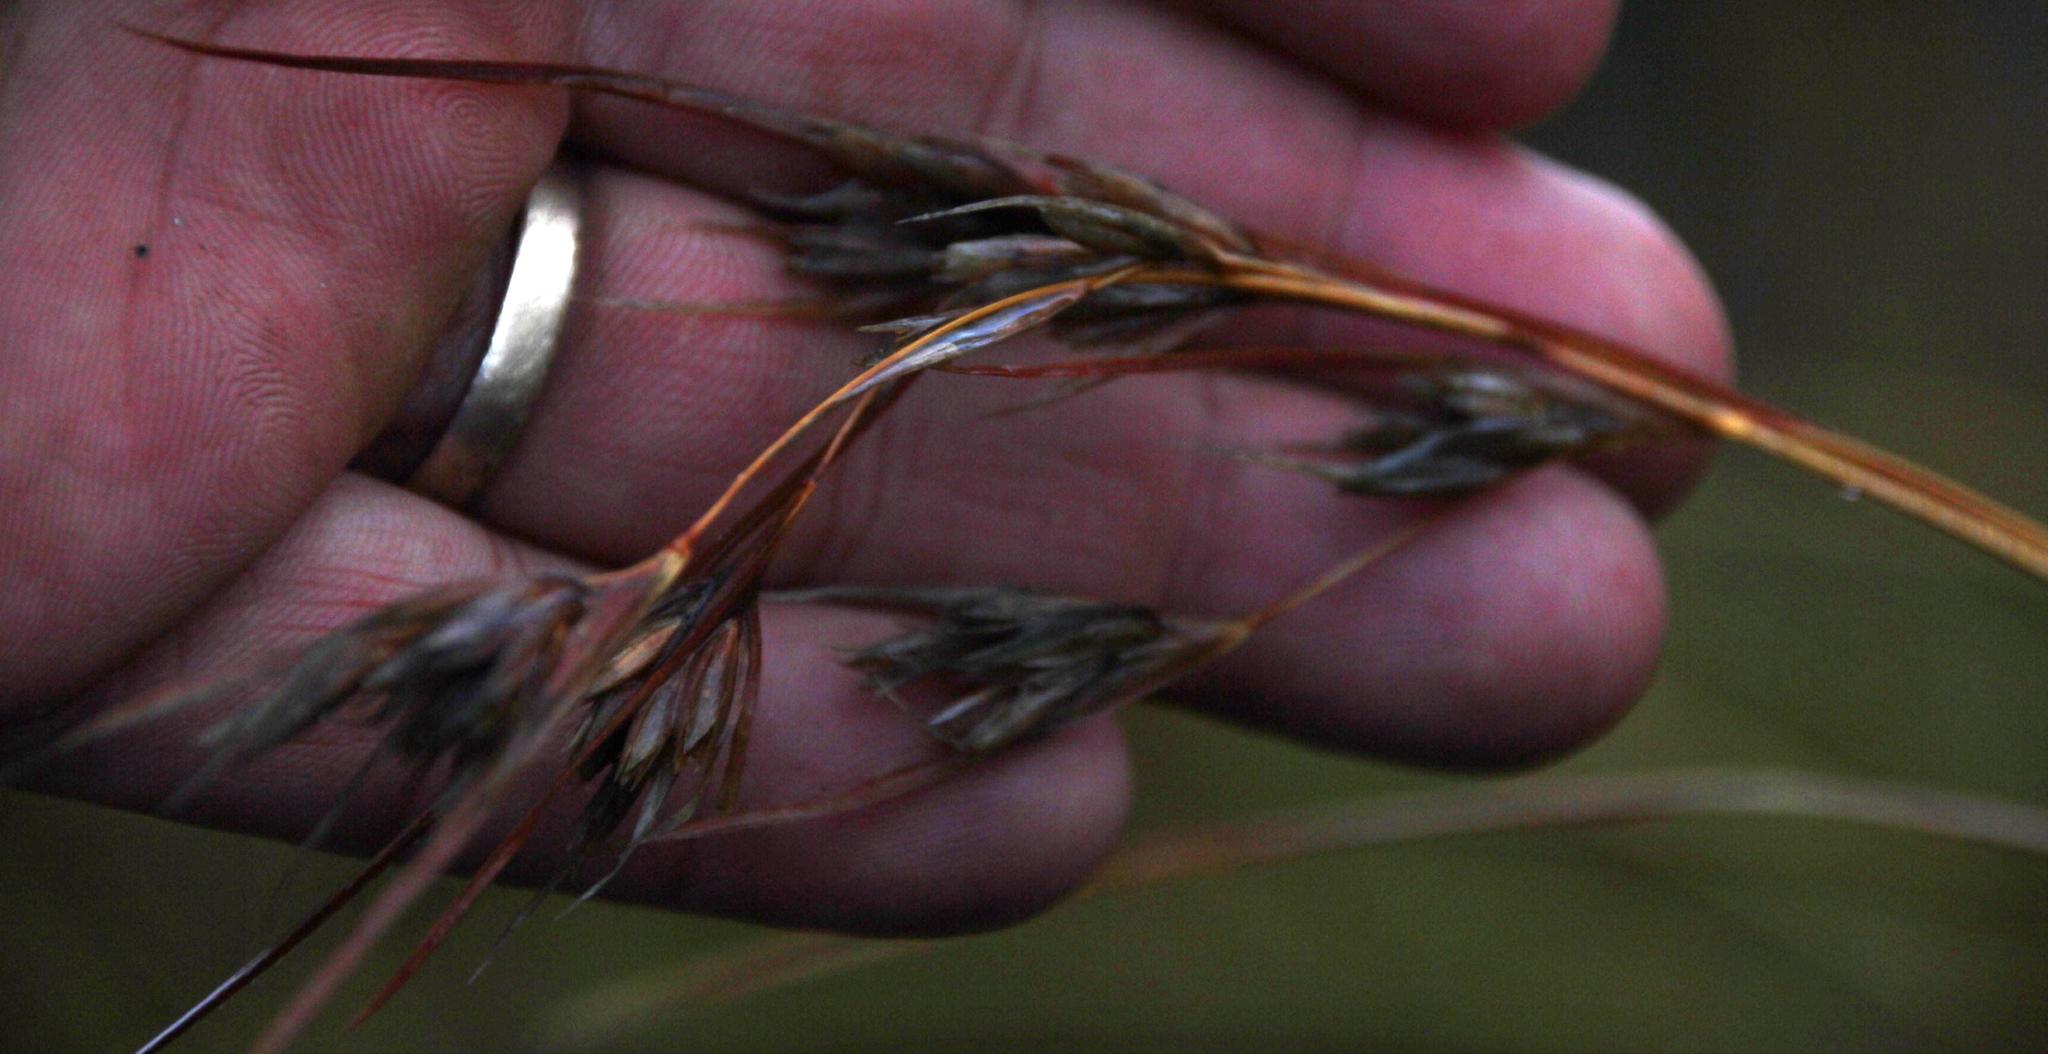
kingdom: Plantae
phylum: Tracheophyta
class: Liliopsida
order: Poales
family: Poaceae
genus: Themeda
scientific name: Themeda triandra
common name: Kangaroo grass
